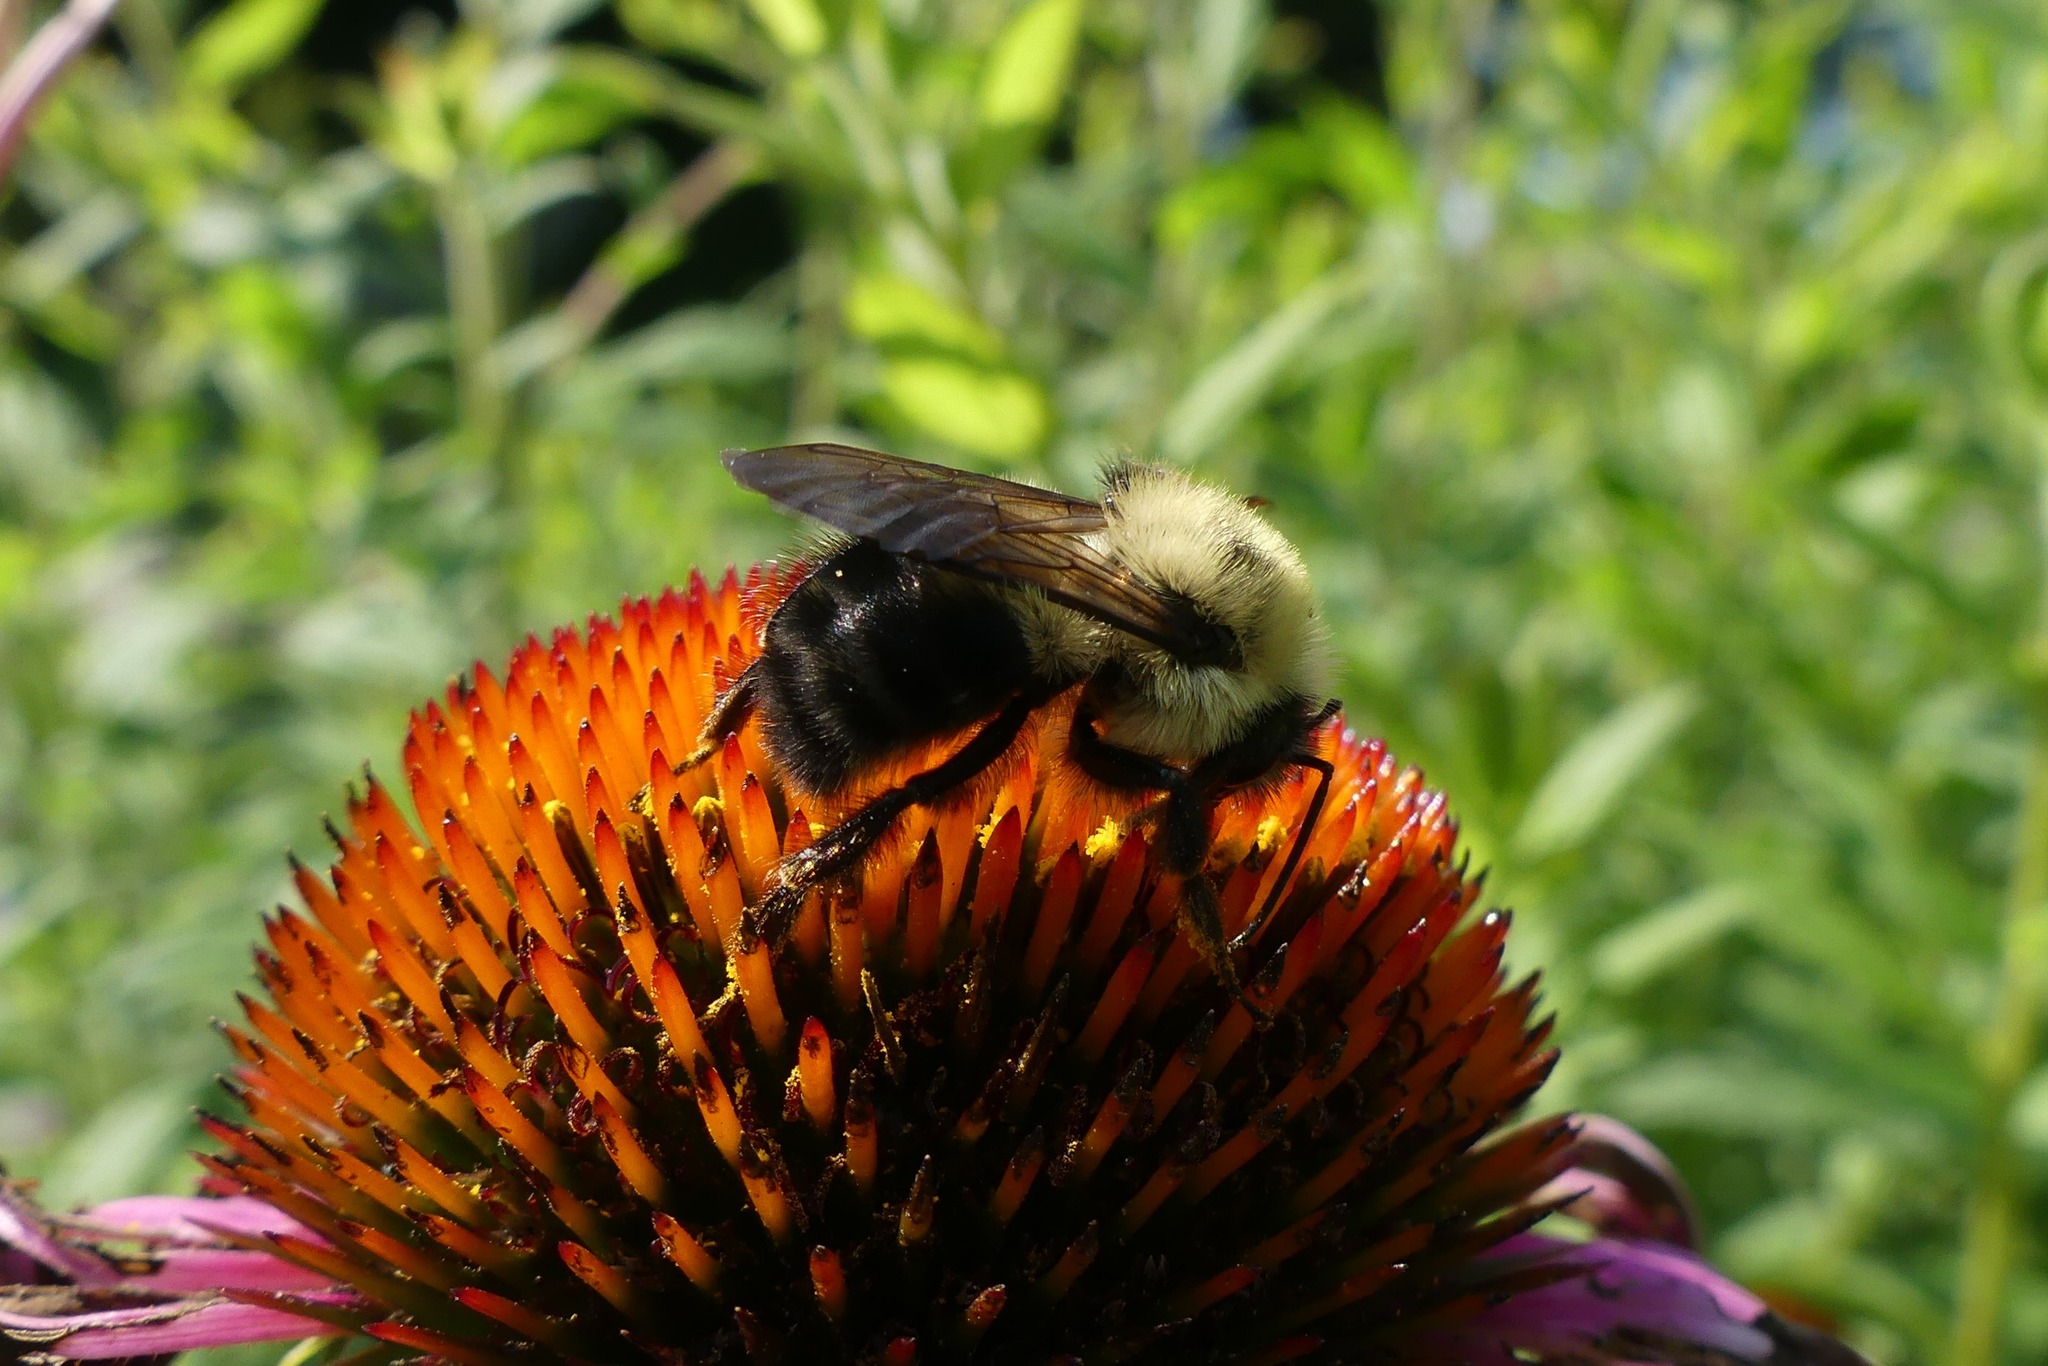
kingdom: Animalia
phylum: Arthropoda
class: Insecta
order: Hymenoptera
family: Apidae
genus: Bombus
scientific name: Bombus bimaculatus
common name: Two-spotted bumble bee
